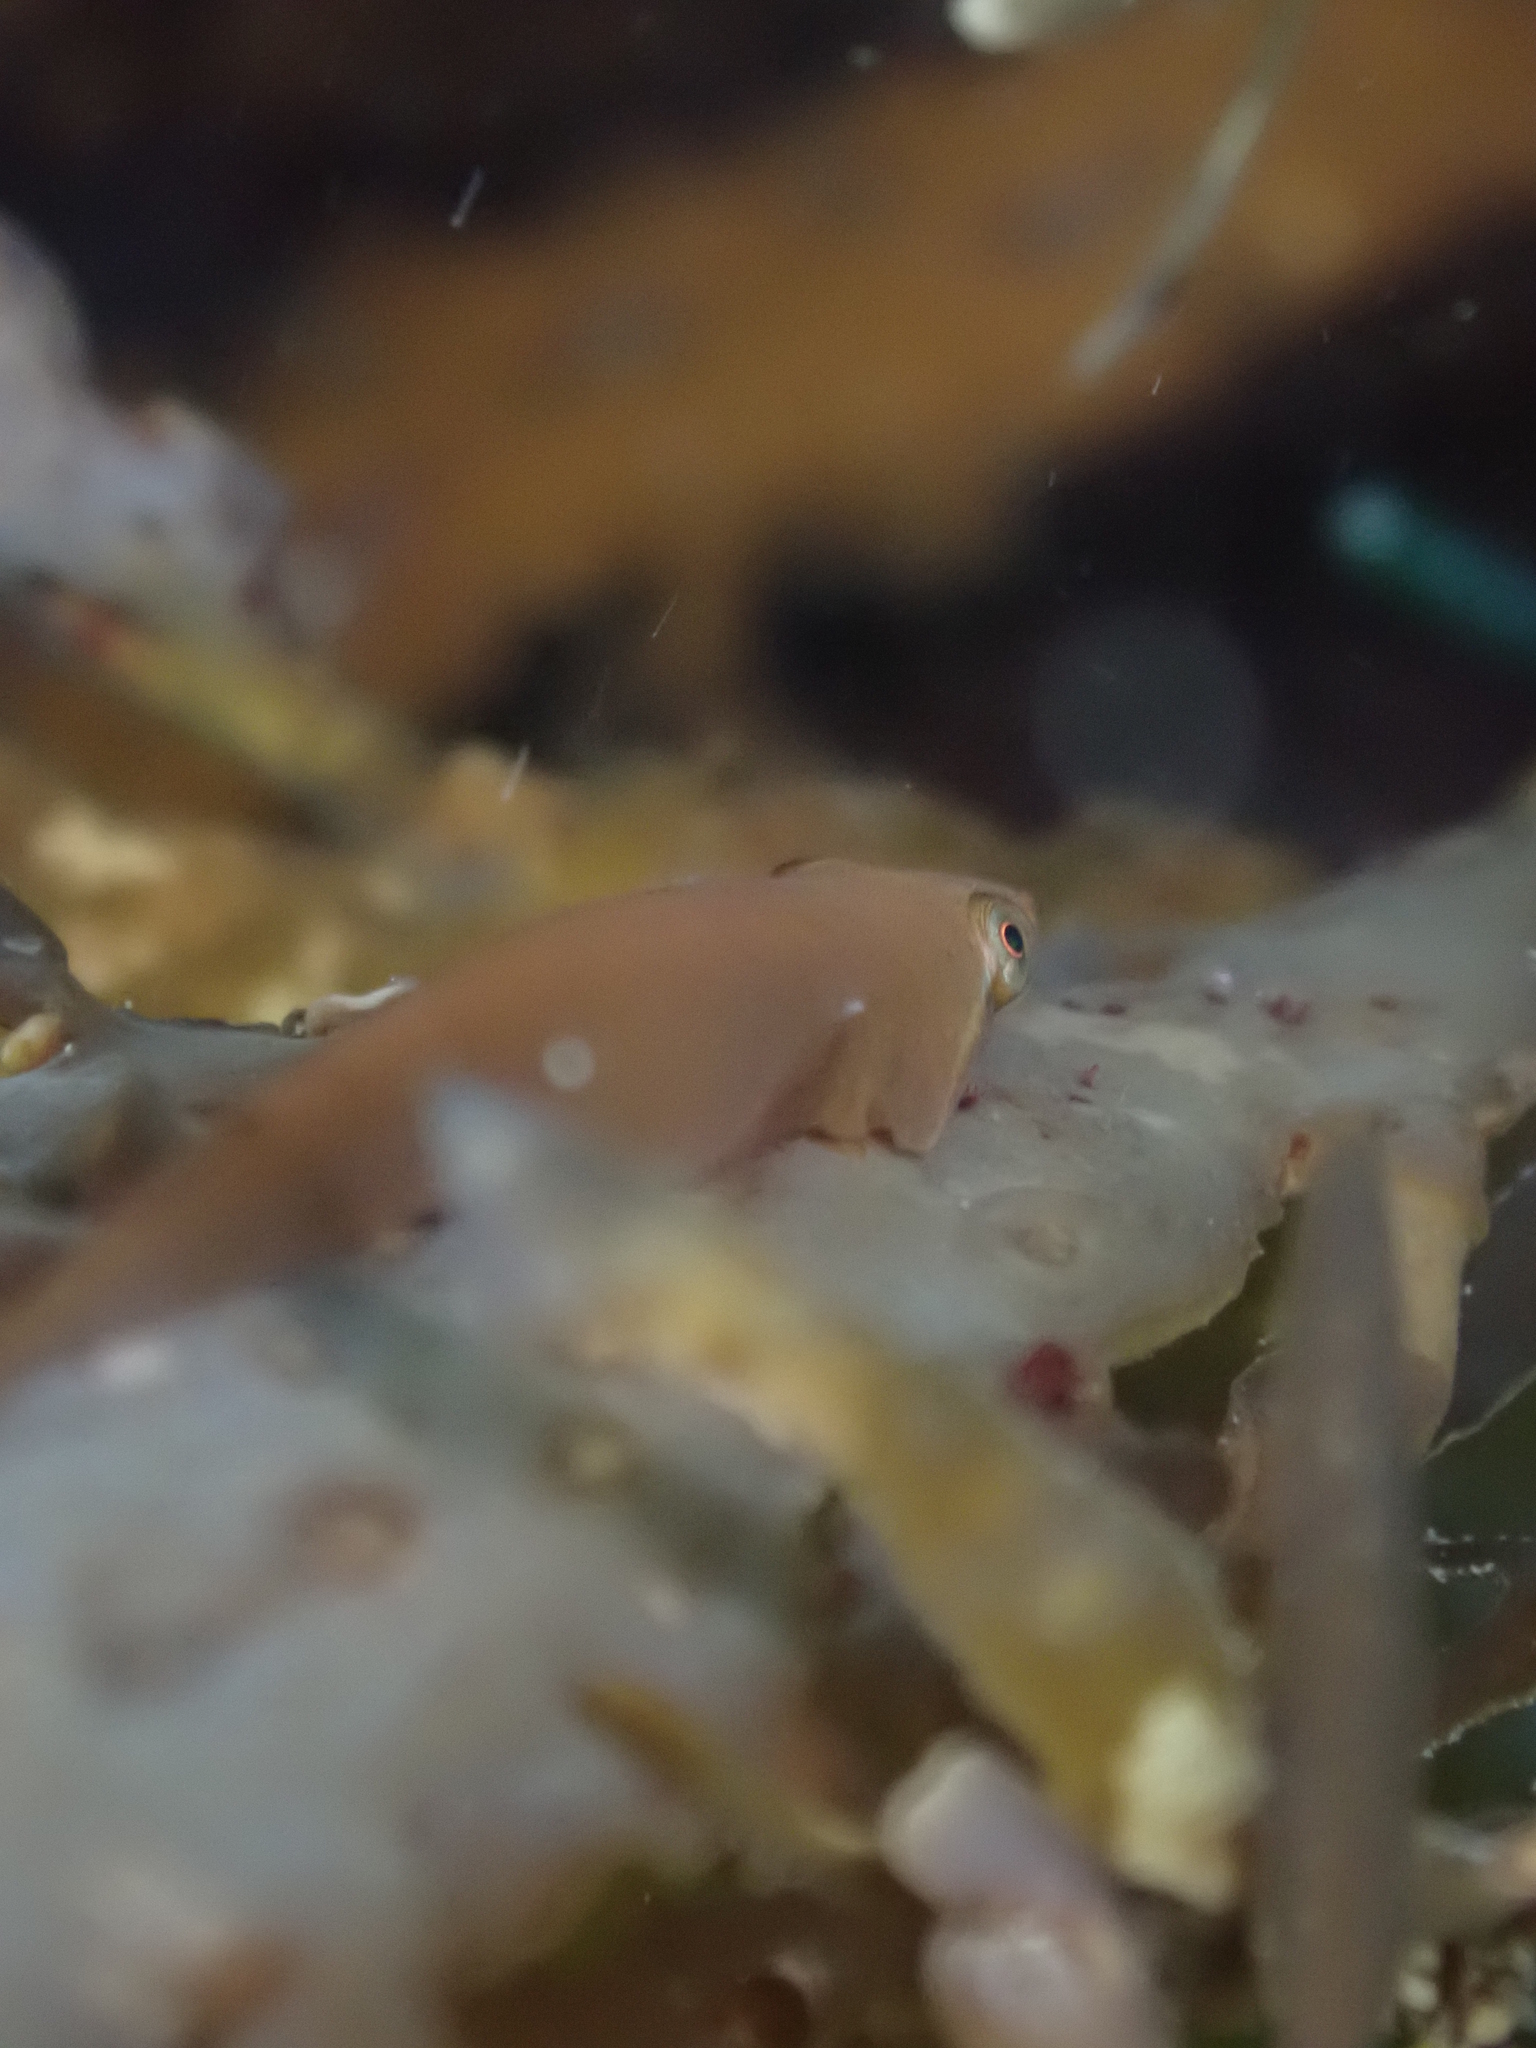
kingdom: Animalia
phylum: Chordata
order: Gobiesociformes
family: Gobiesocidae
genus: Gastrocyathus
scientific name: Gastrocyathus gracilis
